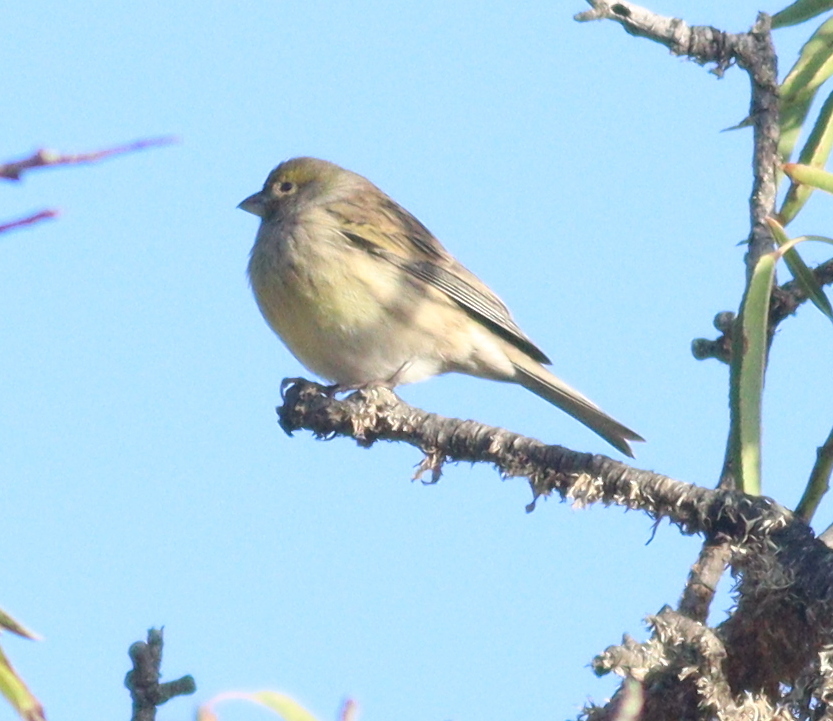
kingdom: Animalia
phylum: Chordata
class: Aves
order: Passeriformes
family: Fringillidae
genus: Serinus
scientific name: Serinus canaria
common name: Atlantic canary
